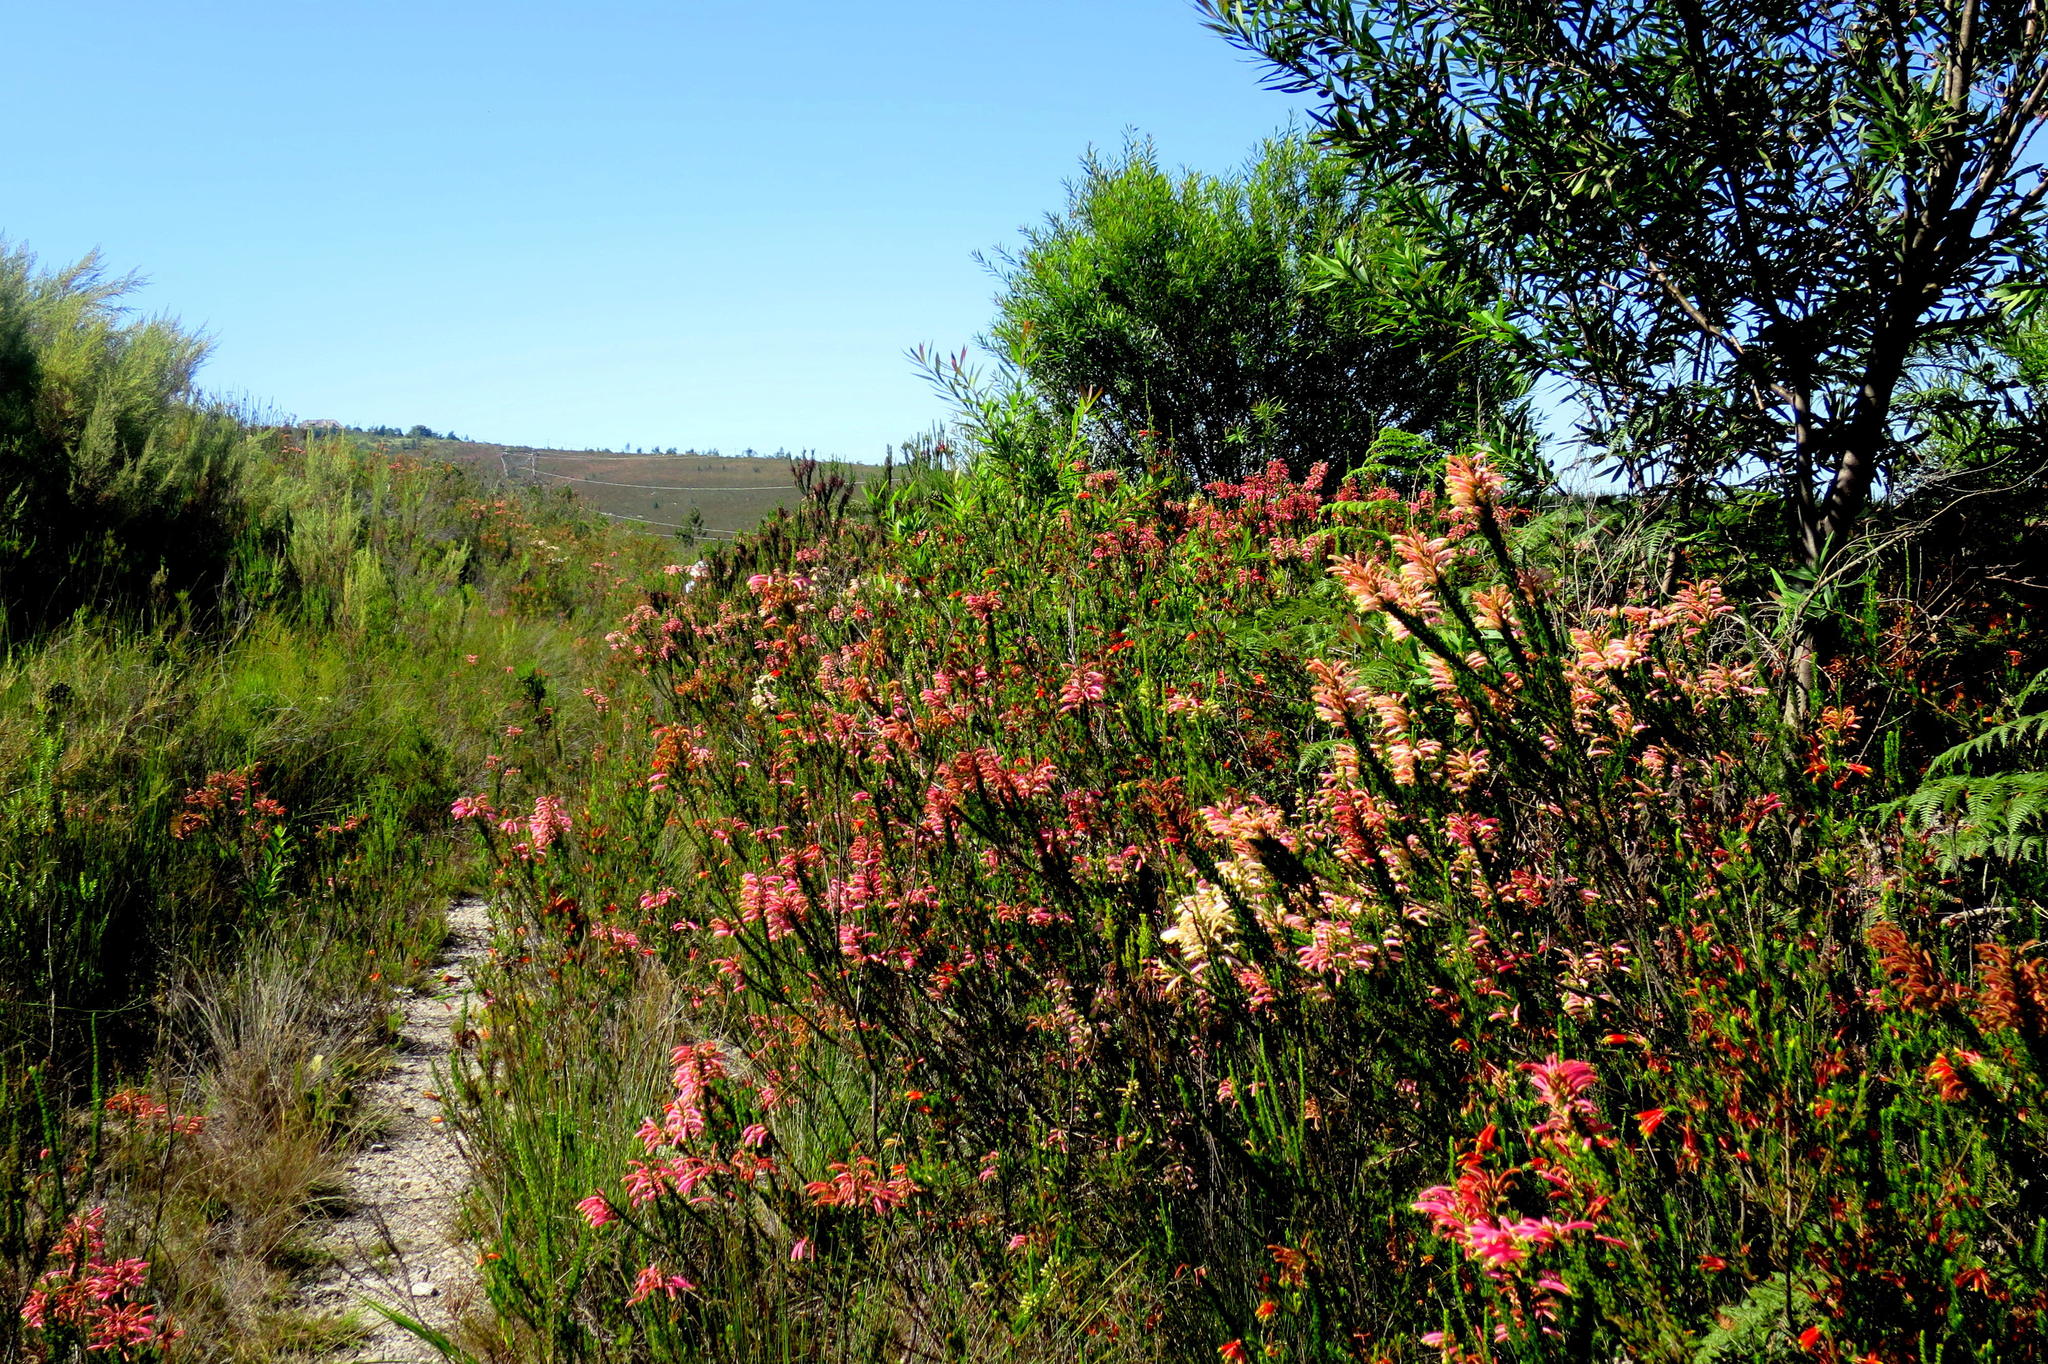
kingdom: Plantae
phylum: Tracheophyta
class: Magnoliopsida
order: Ericales
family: Ericaceae
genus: Erica
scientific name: Erica densifolia
